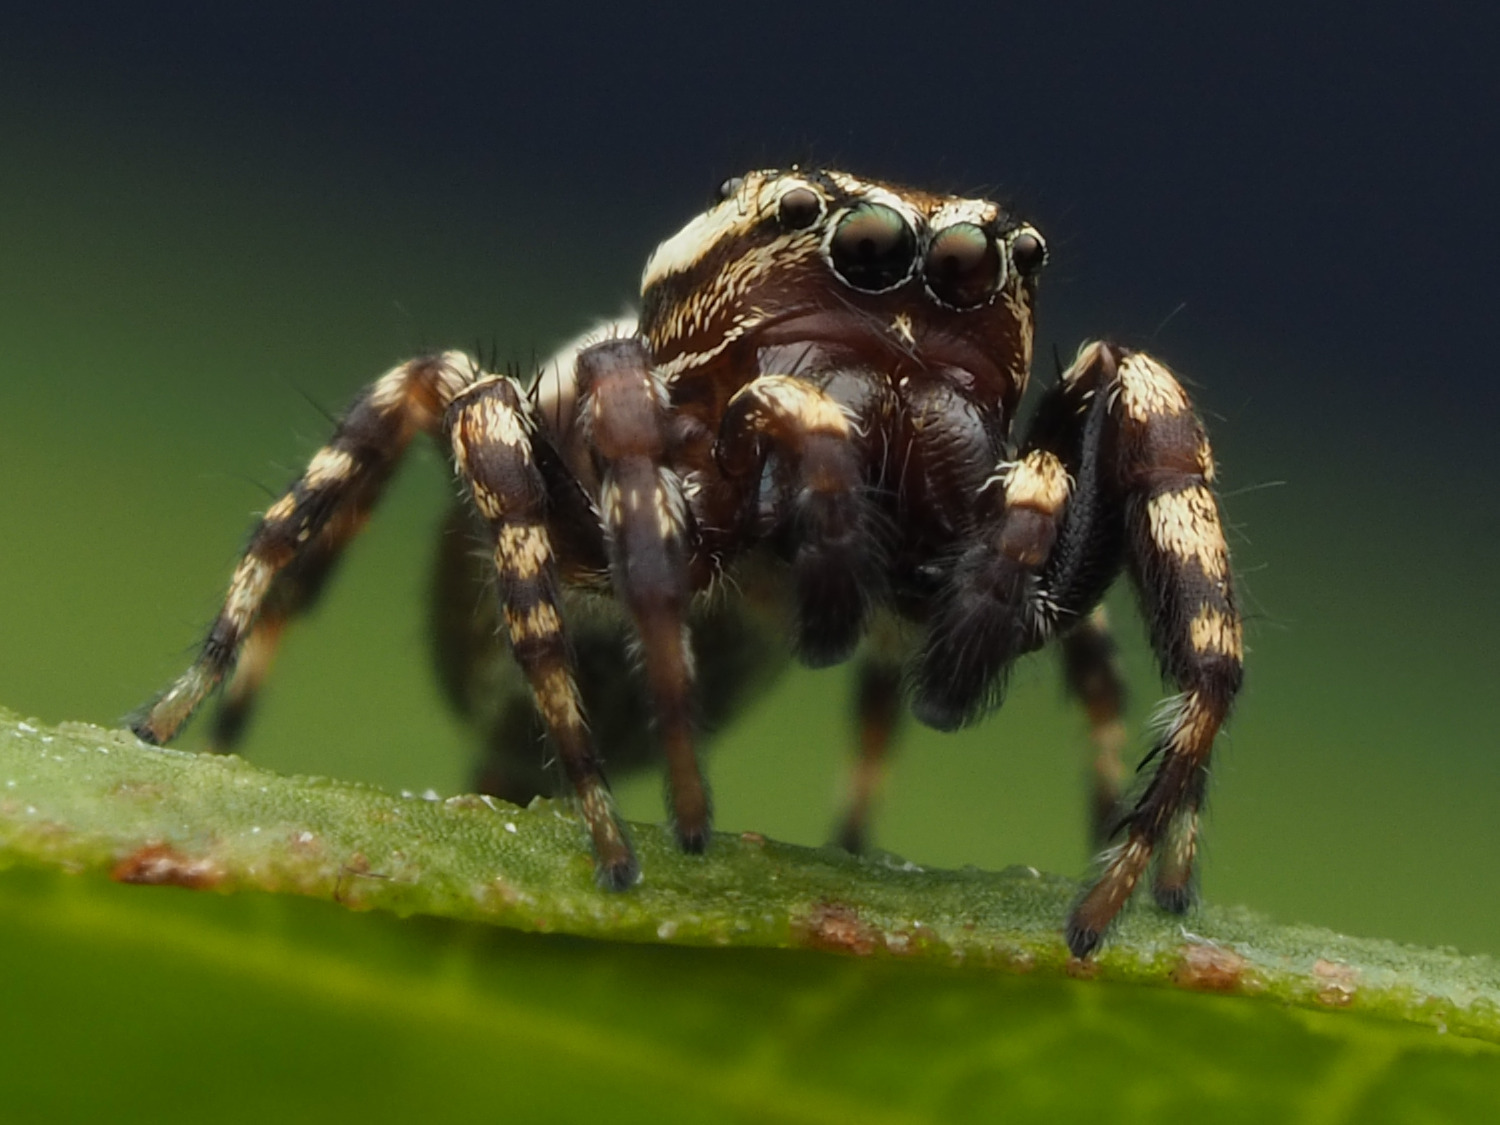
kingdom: Animalia
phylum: Arthropoda
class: Arachnida
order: Araneae
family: Salticidae
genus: Pelegrina
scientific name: Pelegrina galathea
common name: Jumping spiders
